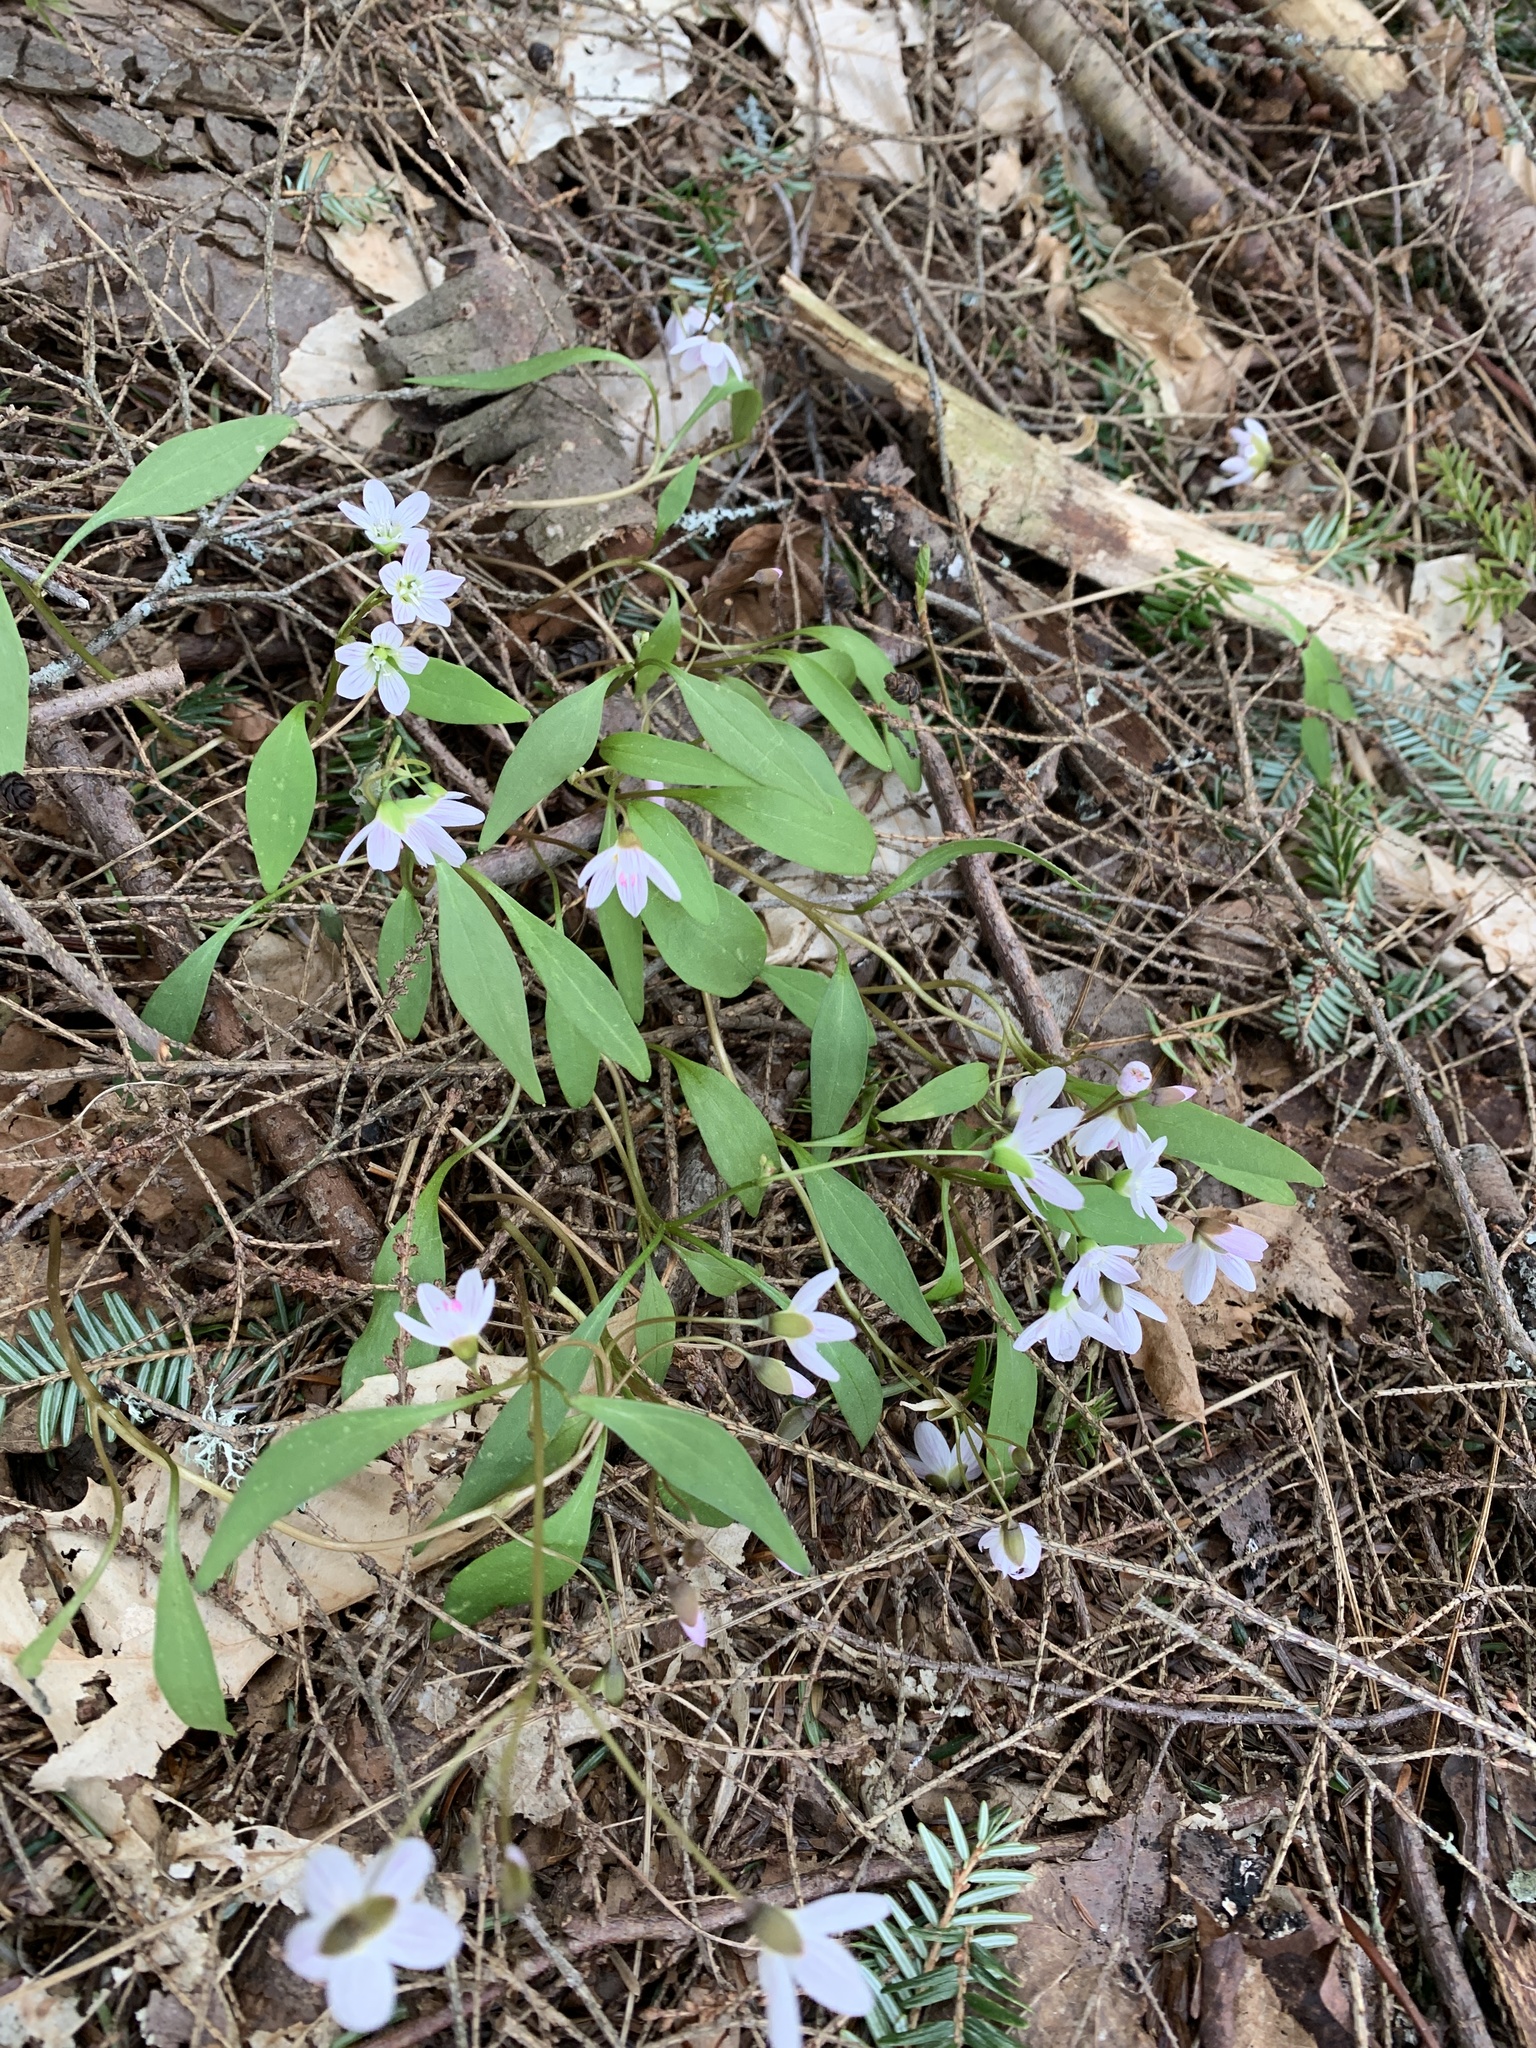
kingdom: Plantae
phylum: Tracheophyta
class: Magnoliopsida
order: Caryophyllales
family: Montiaceae
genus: Claytonia
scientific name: Claytonia caroliniana
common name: Carolina spring beauty
